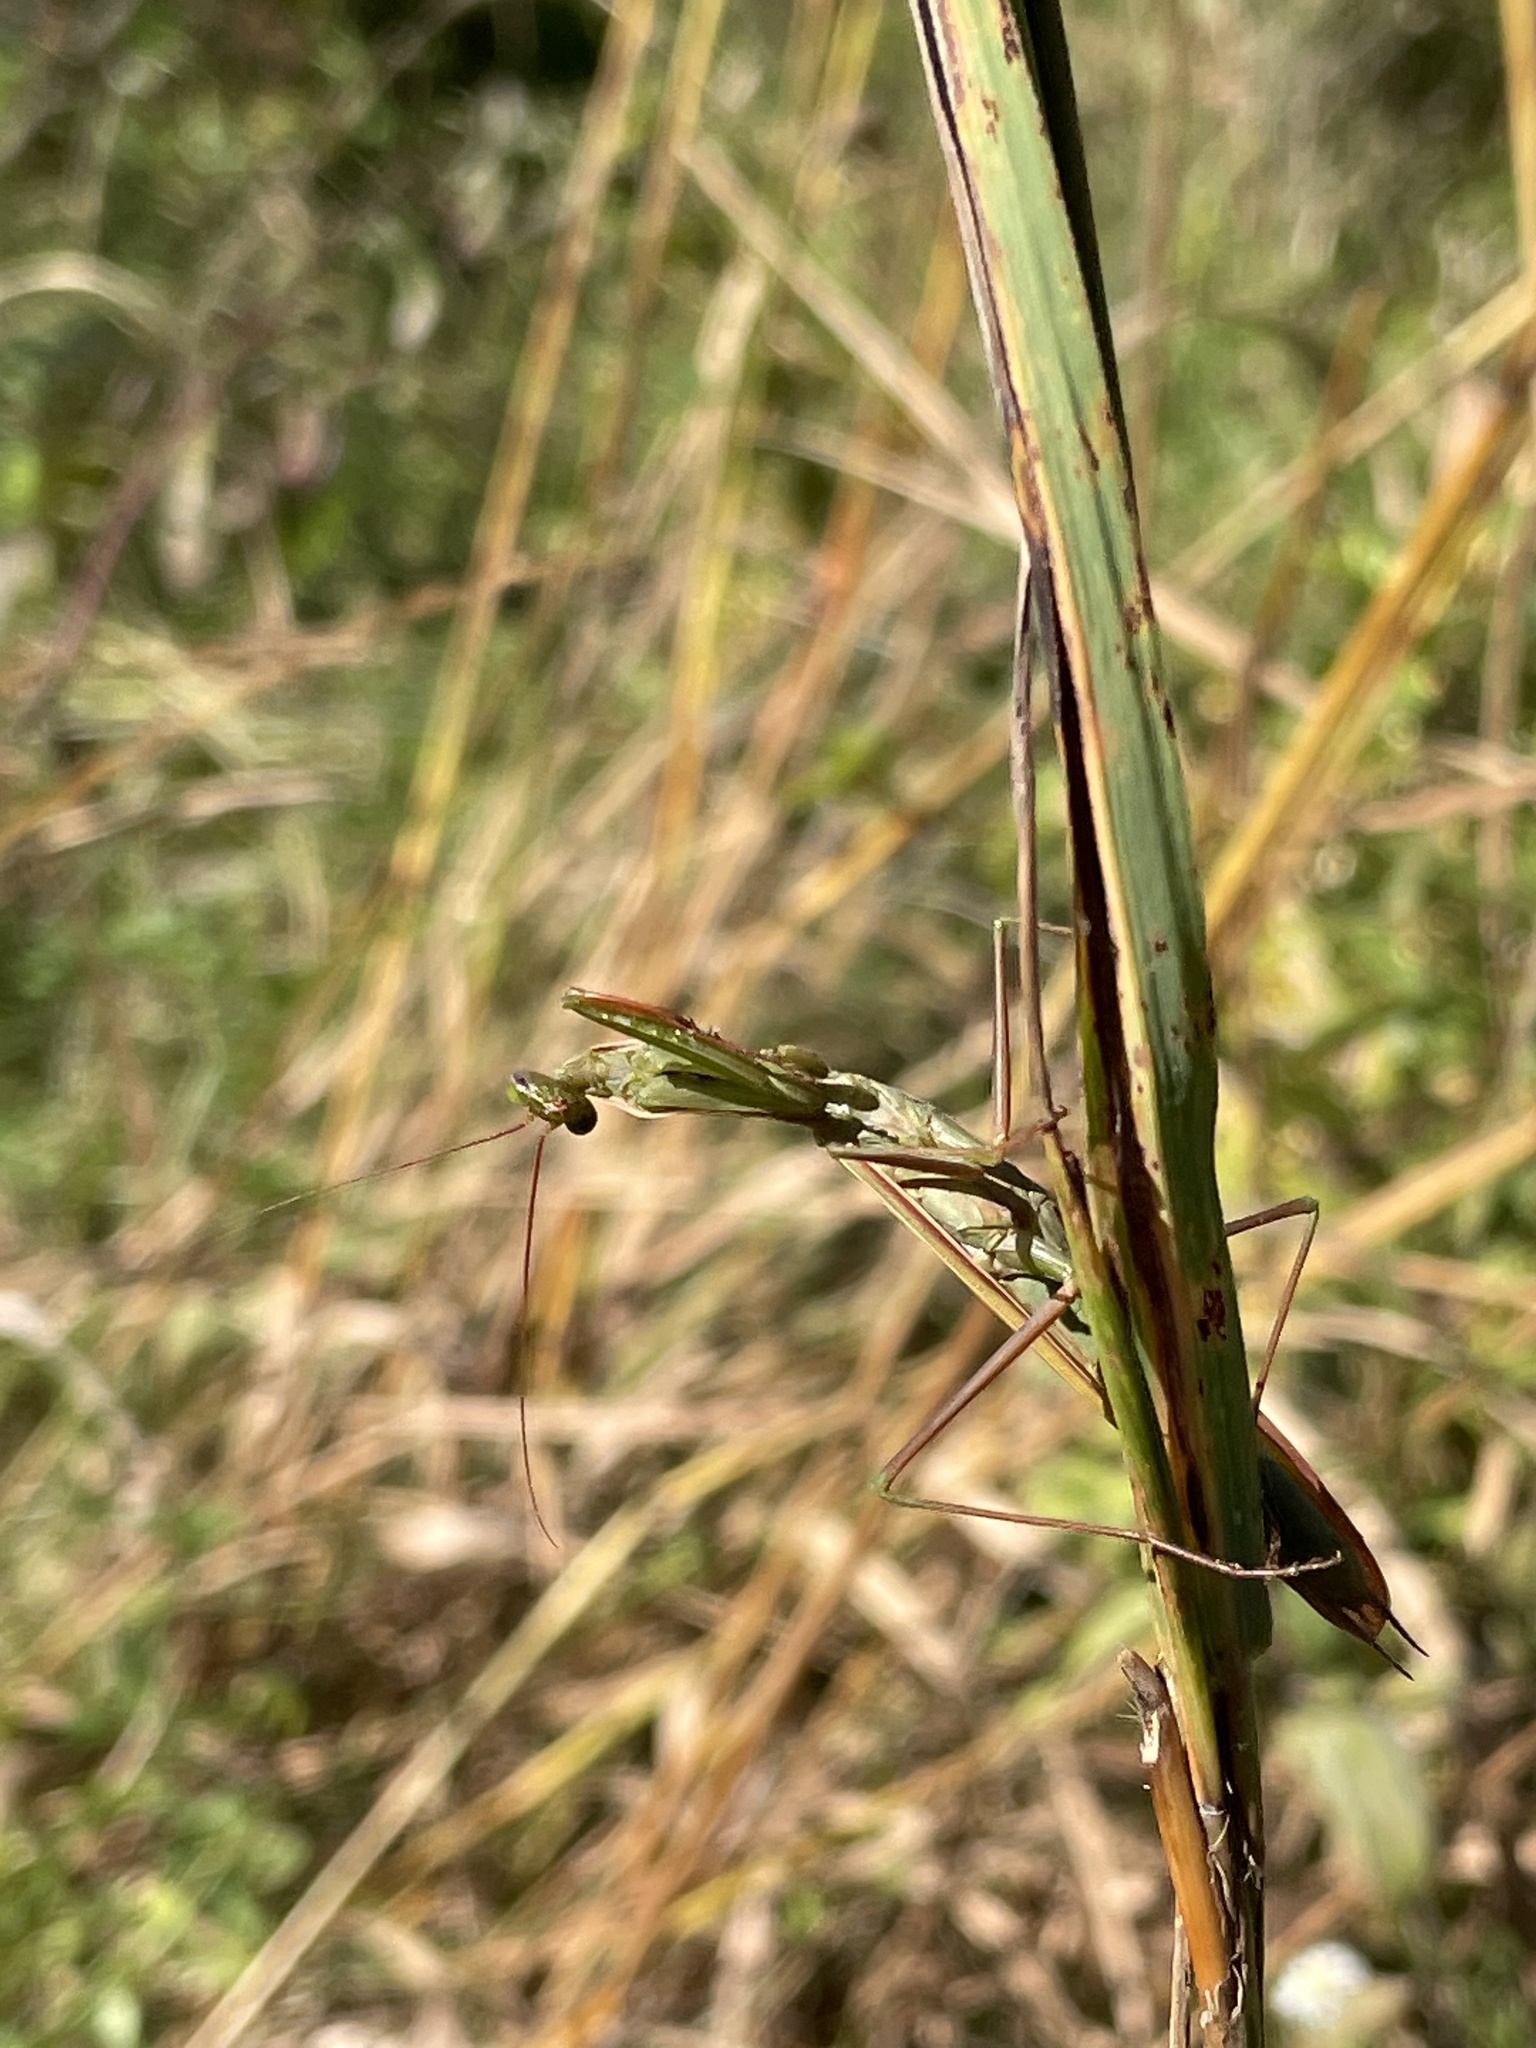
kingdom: Animalia
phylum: Arthropoda
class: Insecta
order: Mantodea
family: Mantidae
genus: Mantis
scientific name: Mantis religiosa
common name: Praying mantis
